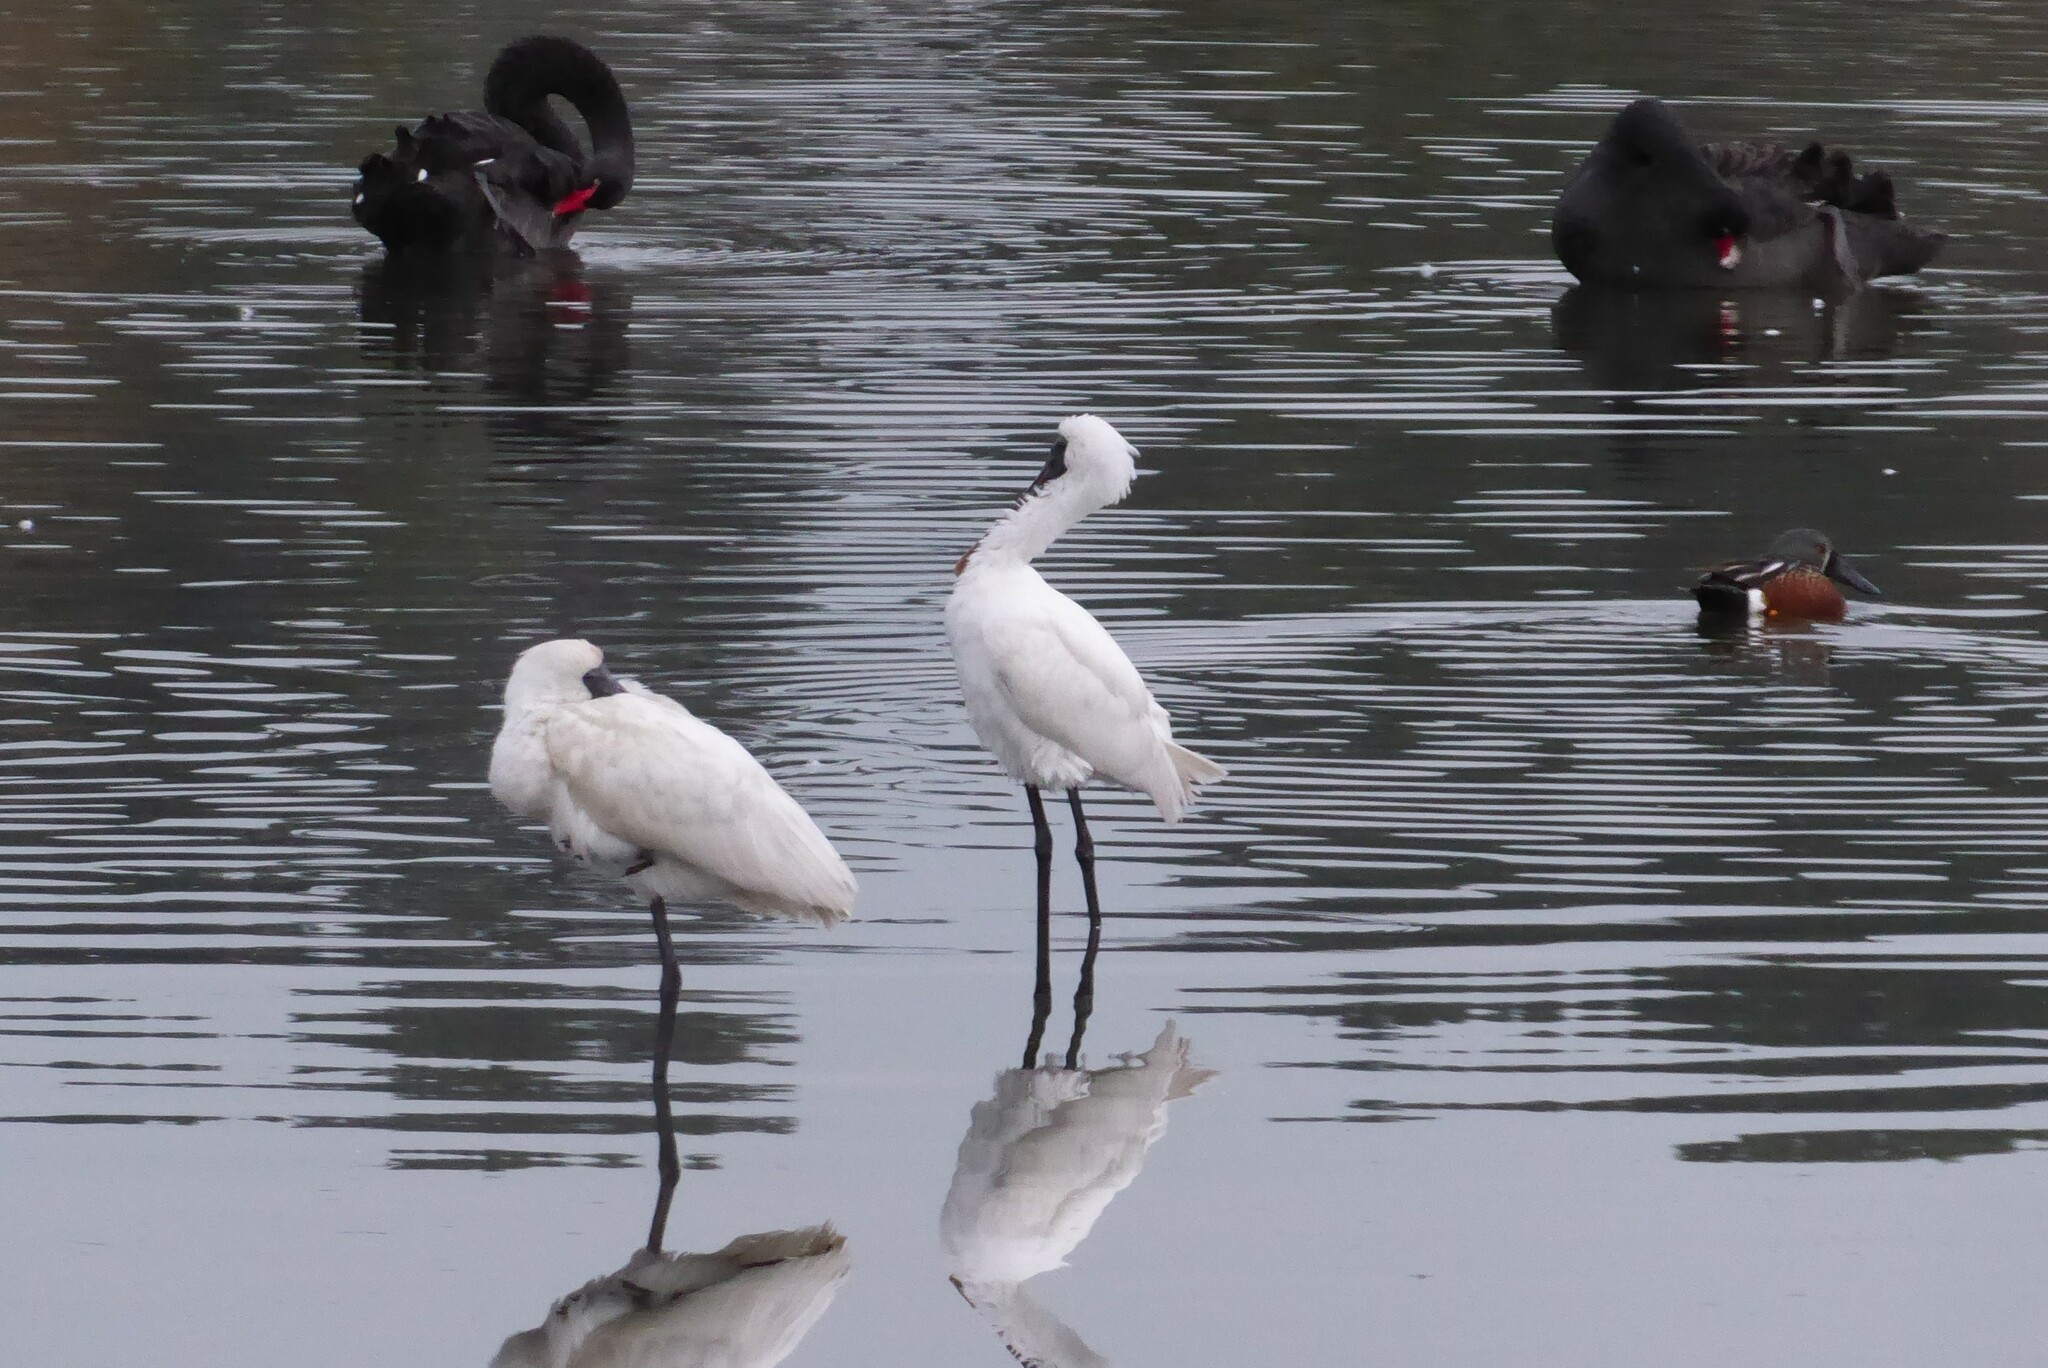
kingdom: Animalia
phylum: Chordata
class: Aves
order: Pelecaniformes
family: Threskiornithidae
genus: Platalea
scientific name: Platalea regia
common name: Royal spoonbill
